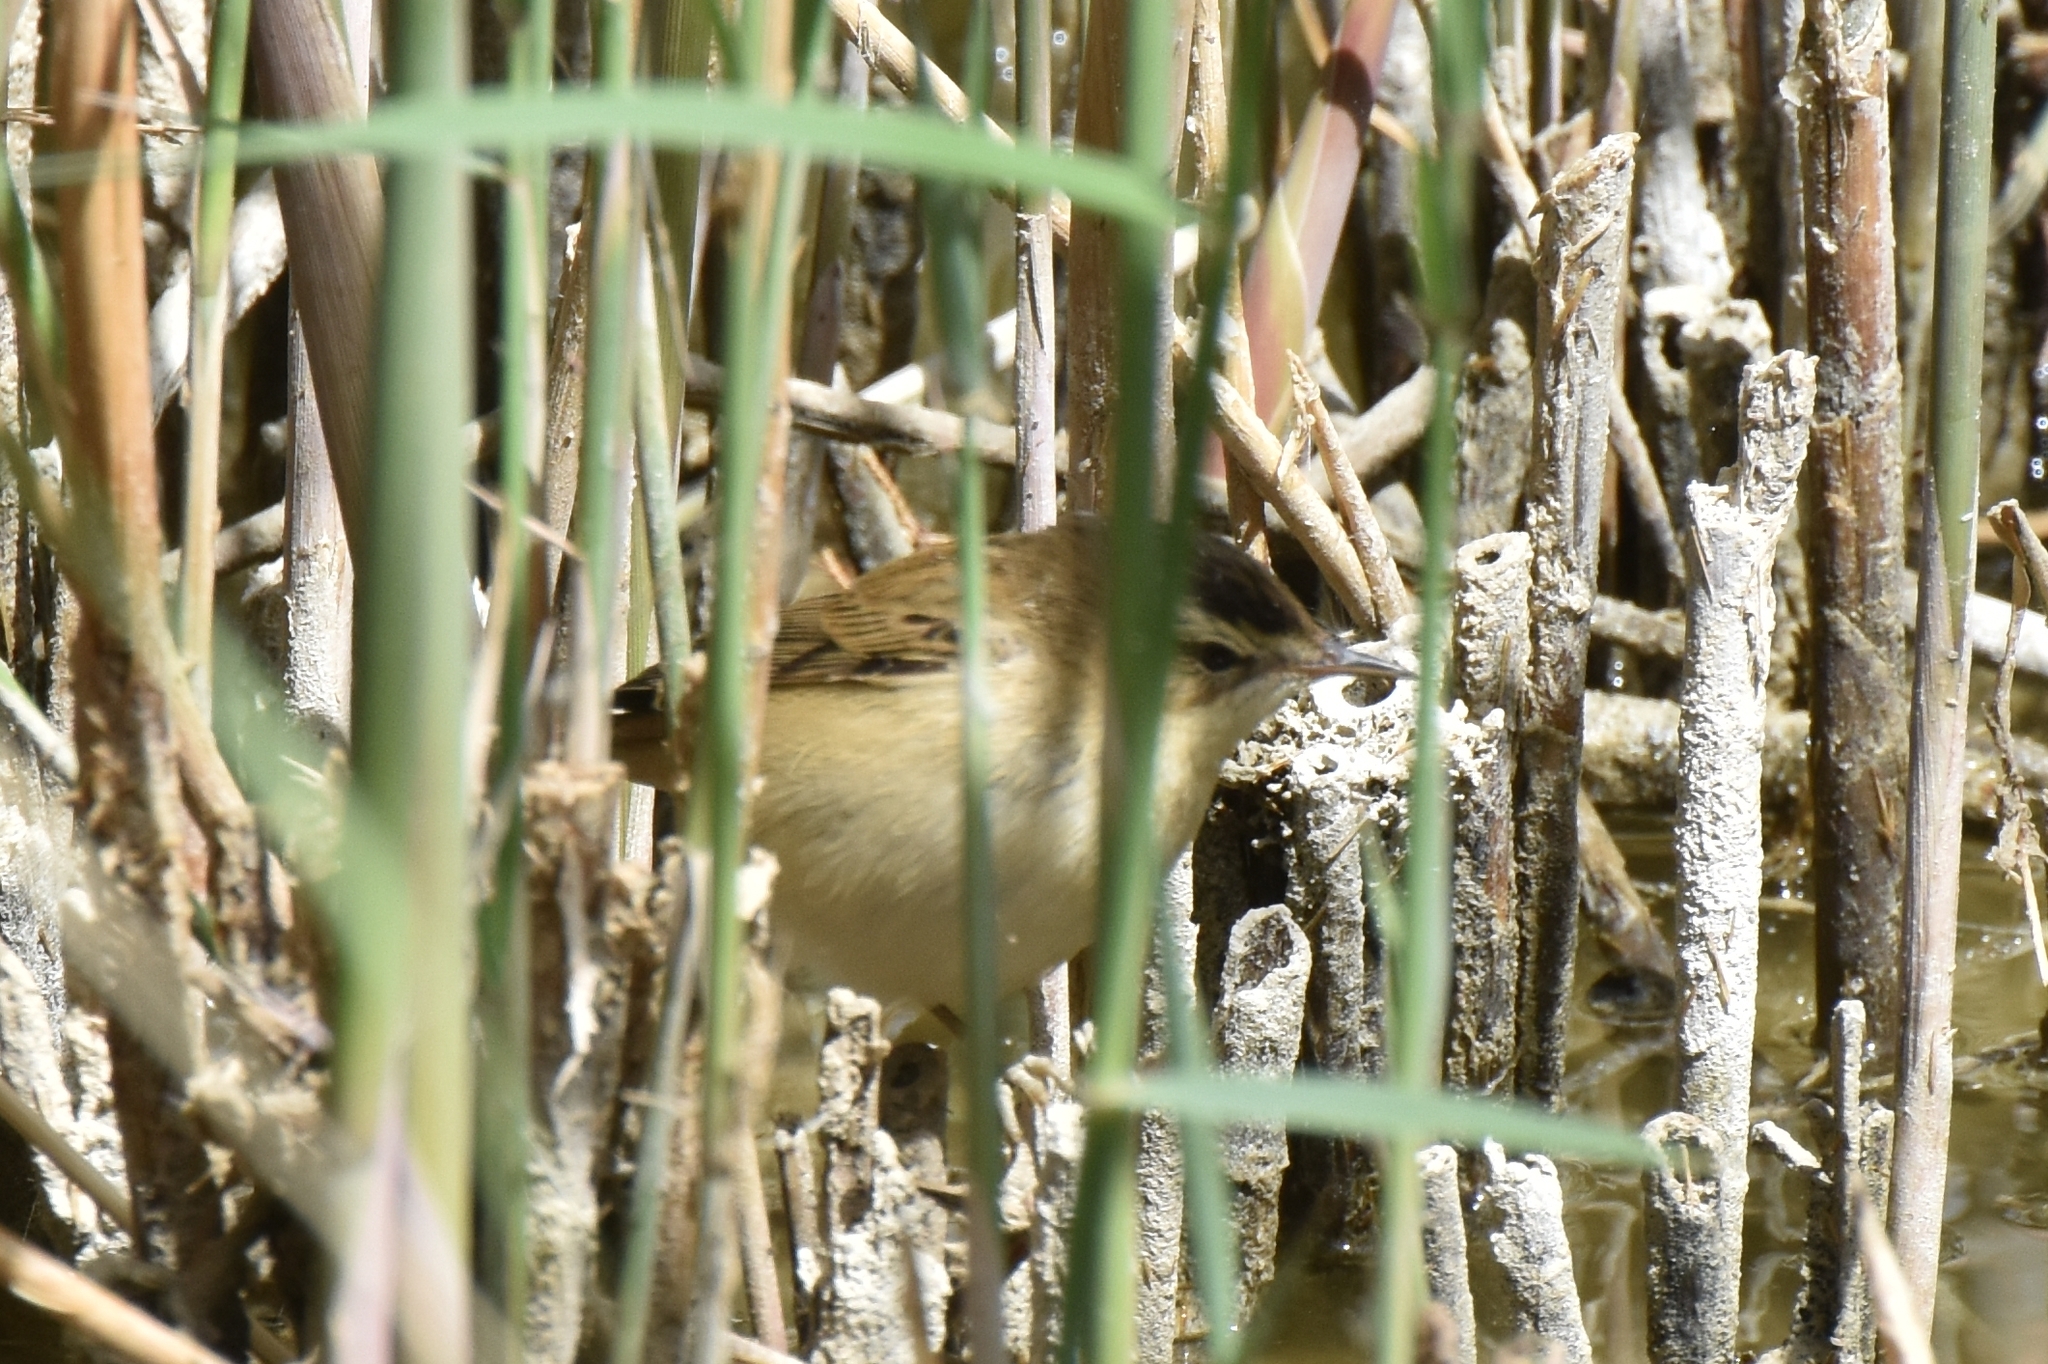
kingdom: Animalia
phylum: Chordata
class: Aves
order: Passeriformes
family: Acrocephalidae
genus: Acrocephalus
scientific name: Acrocephalus schoenobaenus
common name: Sedge warbler
